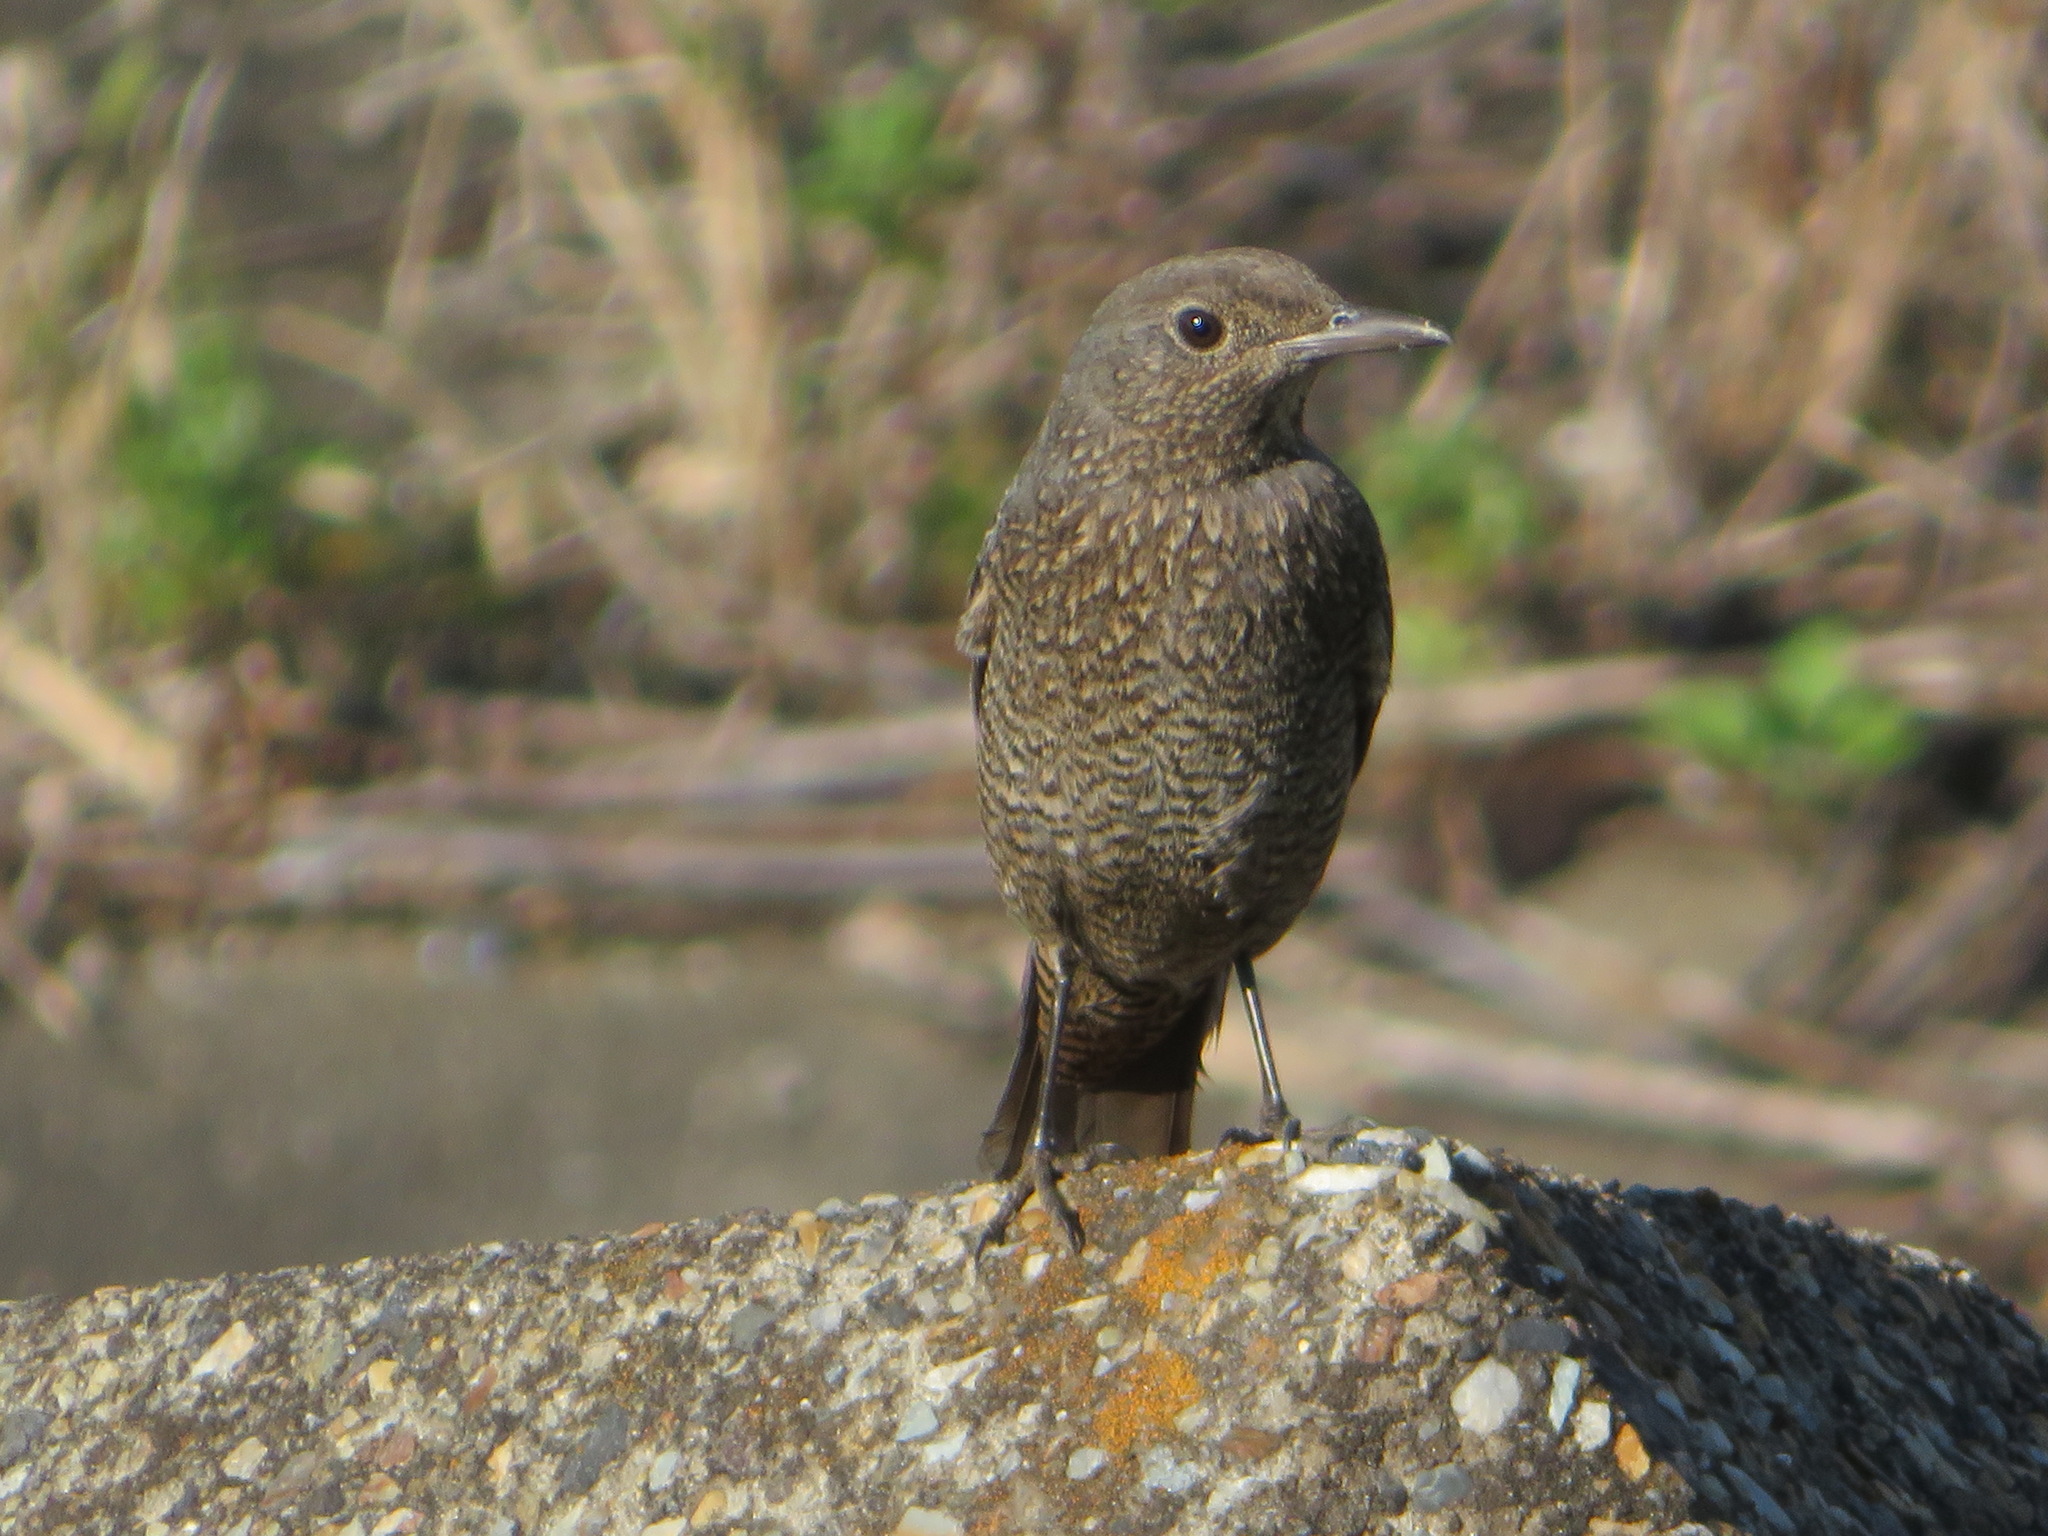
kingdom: Animalia
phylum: Chordata
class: Aves
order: Passeriformes
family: Muscicapidae
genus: Monticola
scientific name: Monticola solitarius
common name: Blue rock thrush
